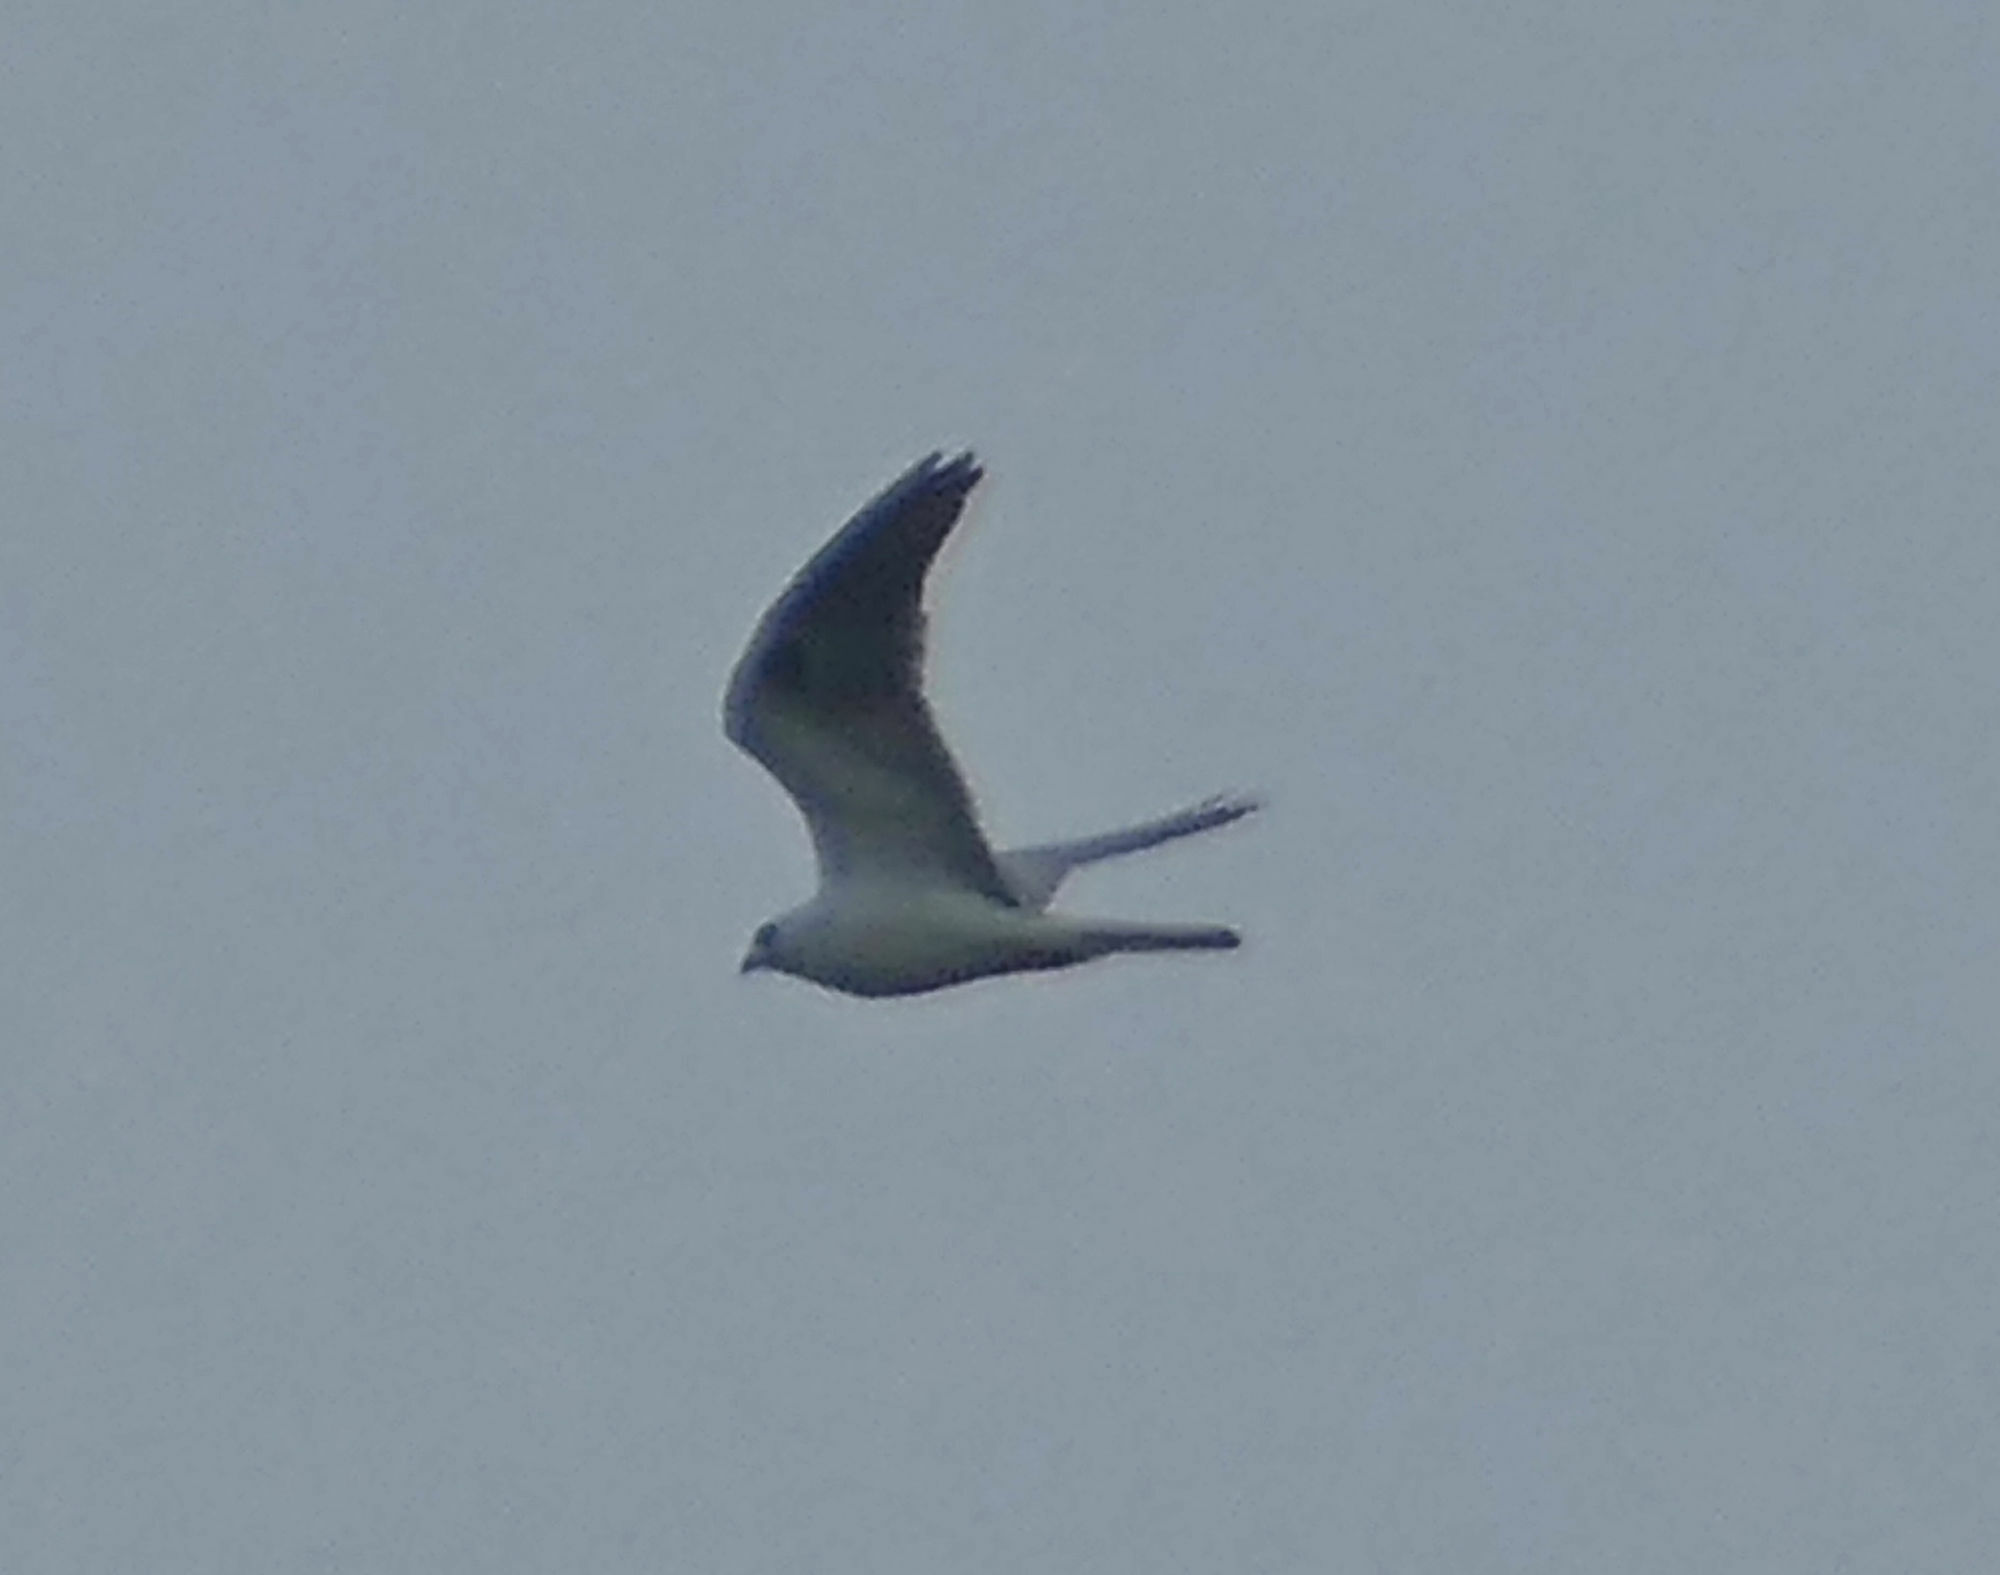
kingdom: Animalia
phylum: Chordata
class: Aves
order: Accipitriformes
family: Accipitridae
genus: Elanus
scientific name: Elanus leucurus
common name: White-tailed kite
